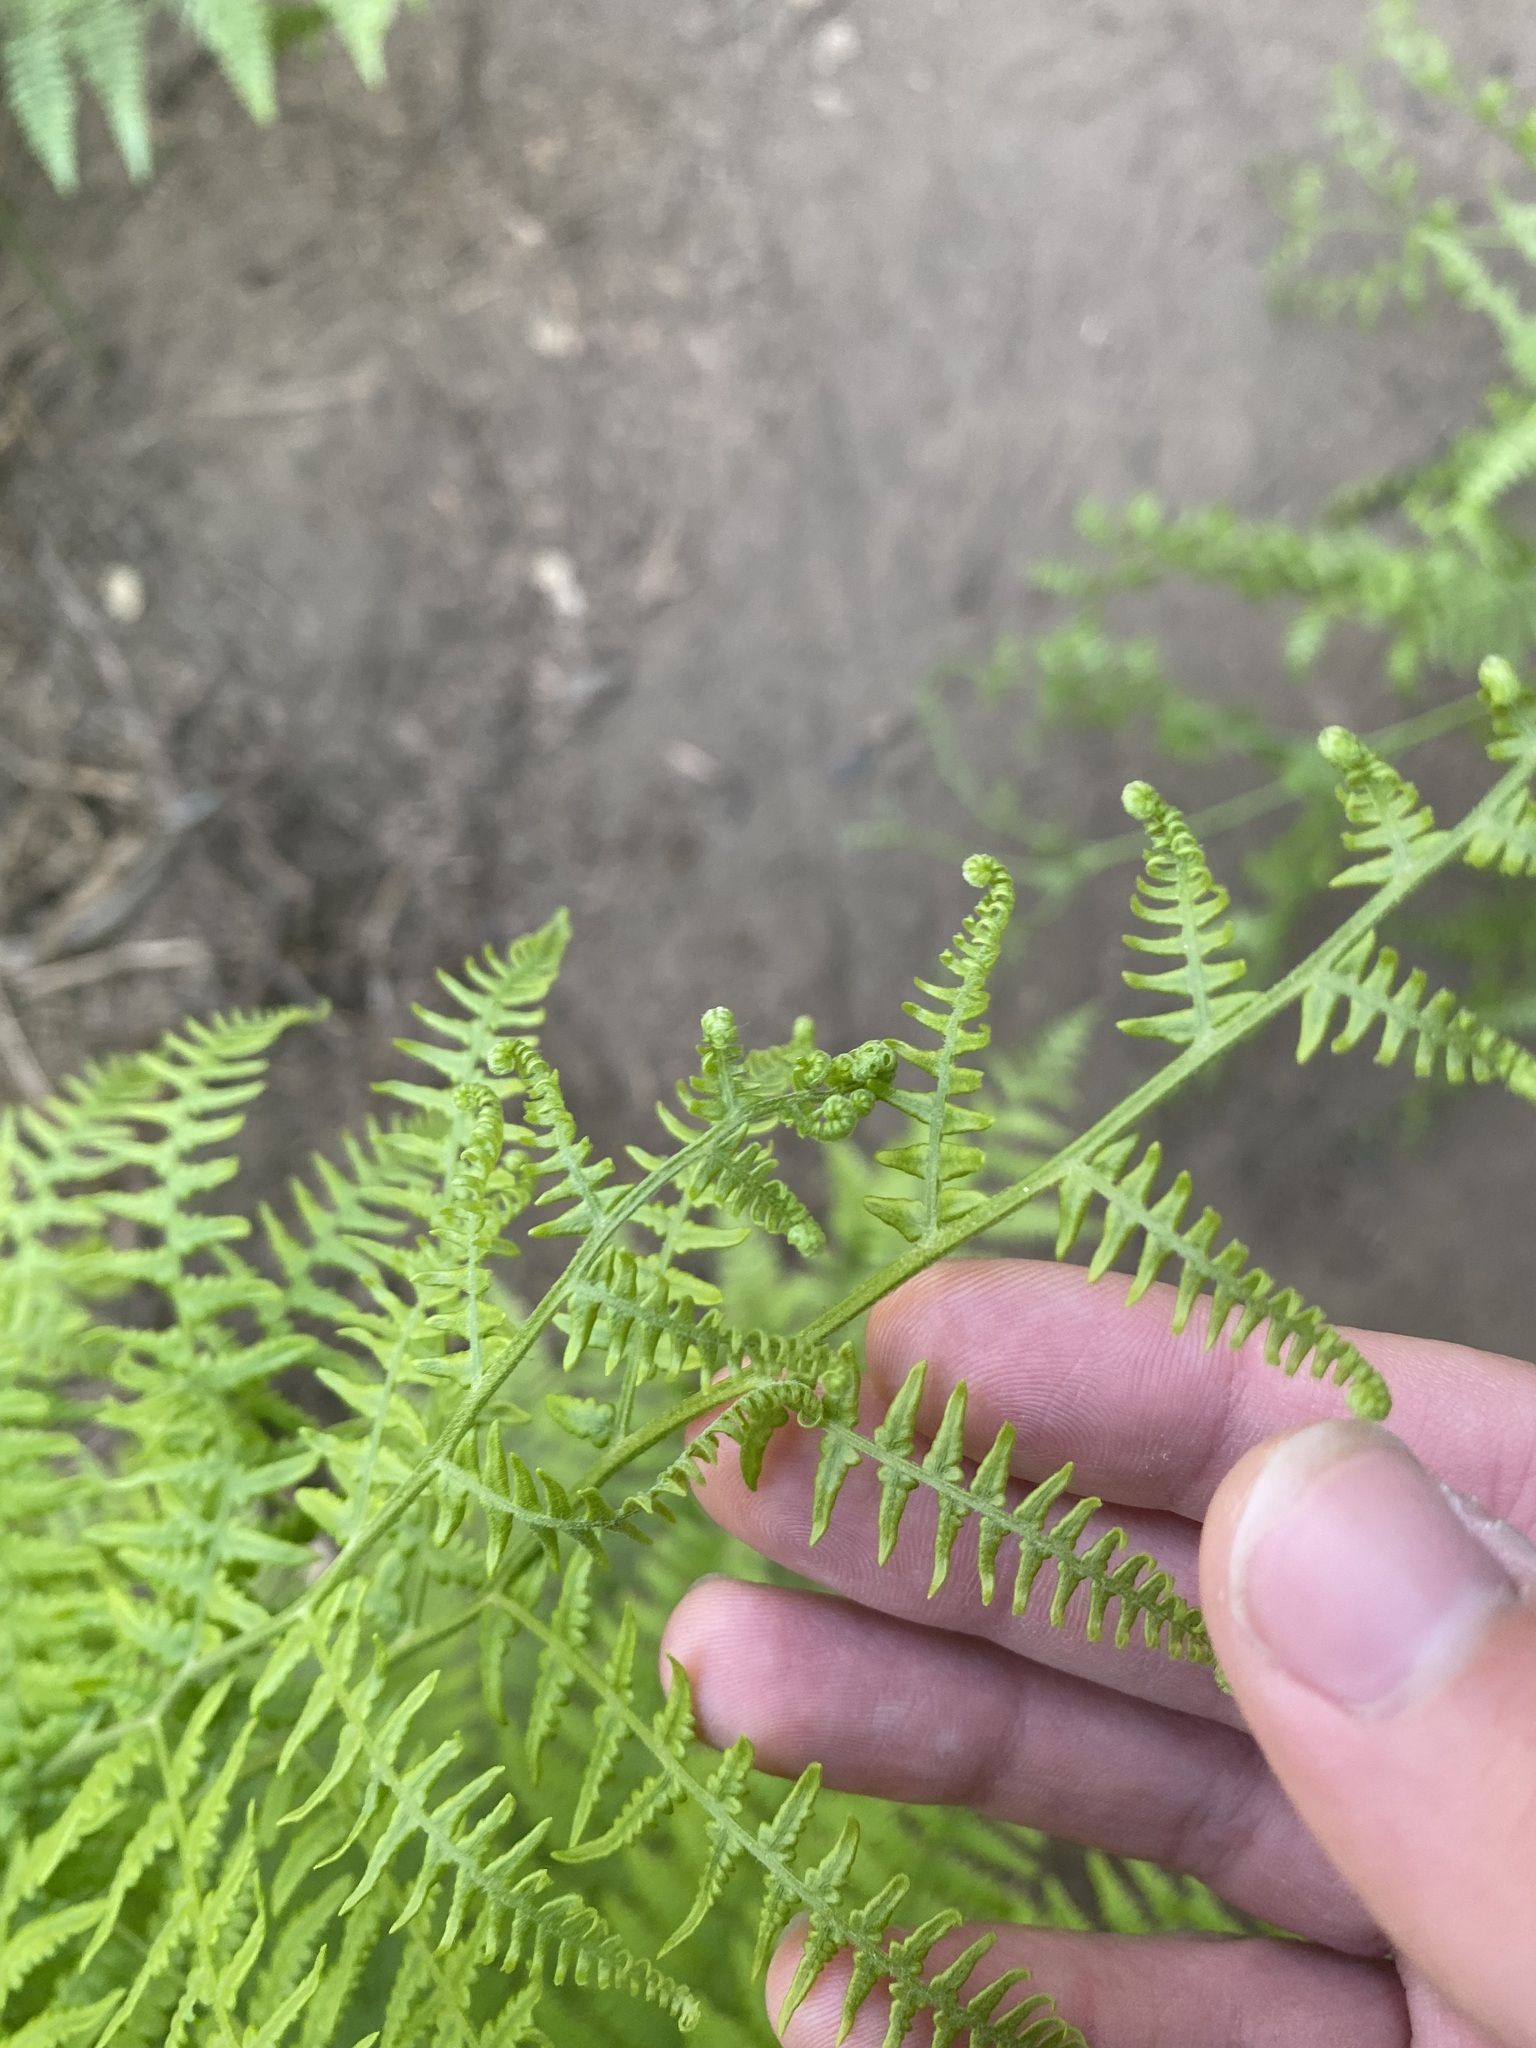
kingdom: Plantae
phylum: Tracheophyta
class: Polypodiopsida
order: Polypodiales
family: Dennstaedtiaceae
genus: Pteridium
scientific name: Pteridium aquilinum
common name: Bracken
